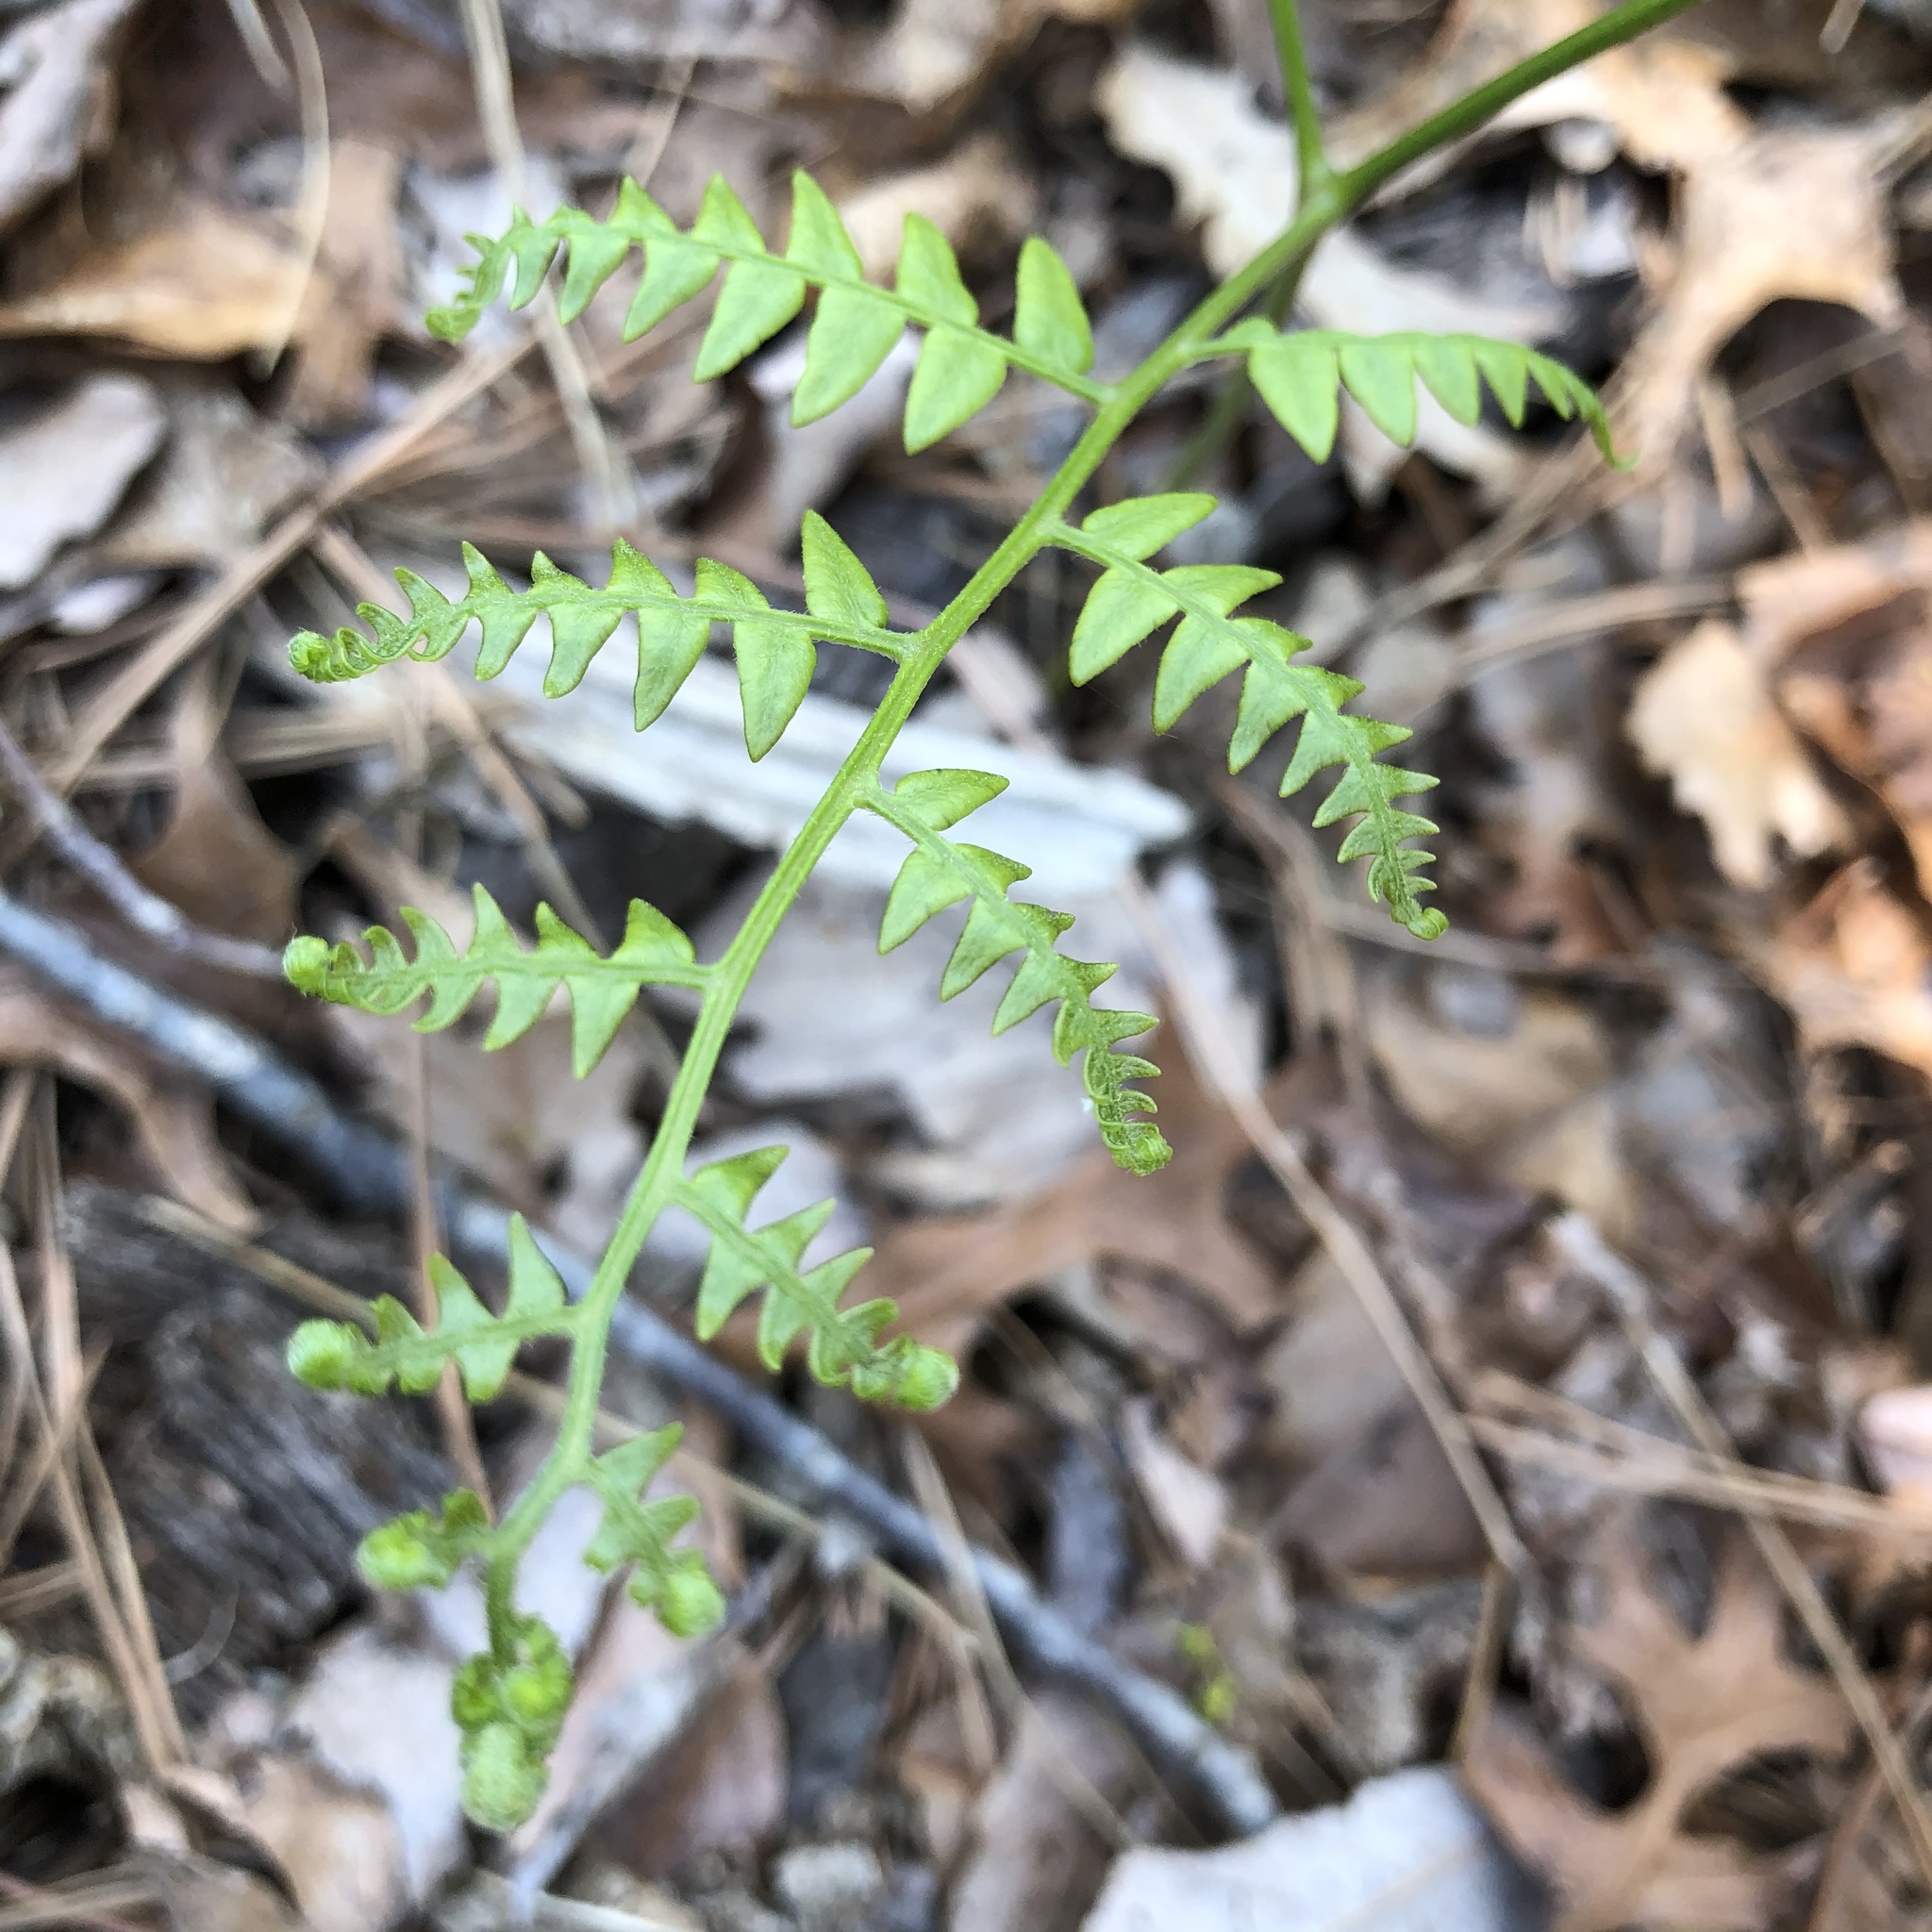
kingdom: Plantae
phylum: Tracheophyta
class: Polypodiopsida
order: Polypodiales
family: Dennstaedtiaceae
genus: Pteridium
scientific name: Pteridium aquilinum
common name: Bracken
